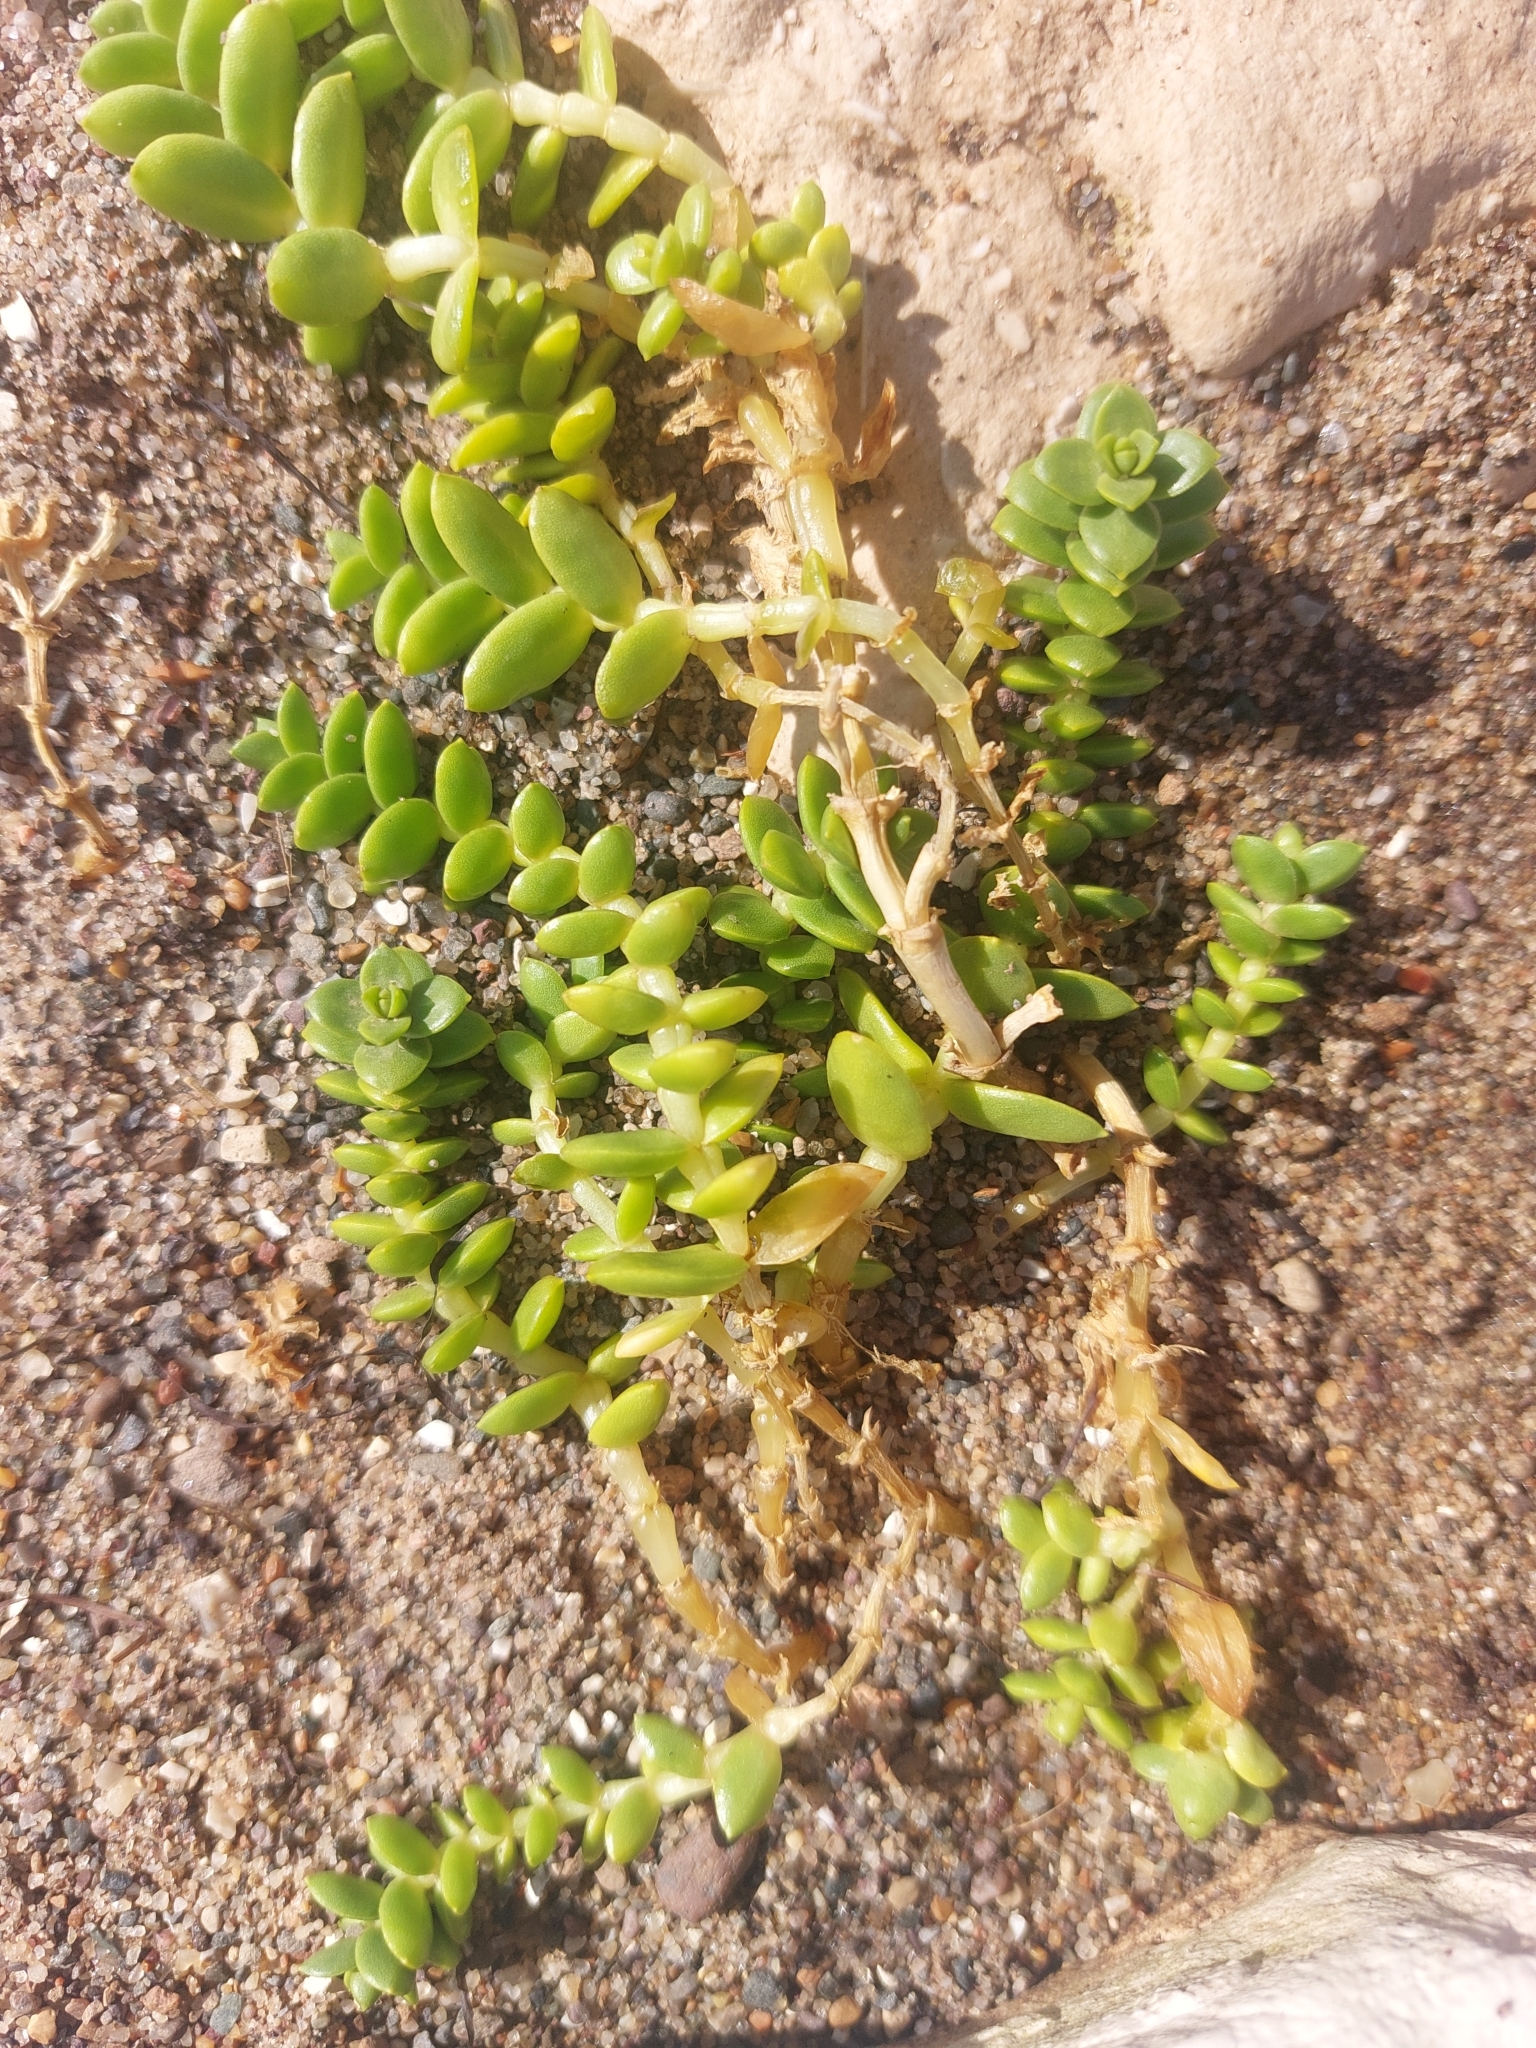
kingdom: Plantae
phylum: Tracheophyta
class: Magnoliopsida
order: Caryophyllales
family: Caryophyllaceae
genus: Honckenya
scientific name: Honckenya peploides
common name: Sea sandwort
